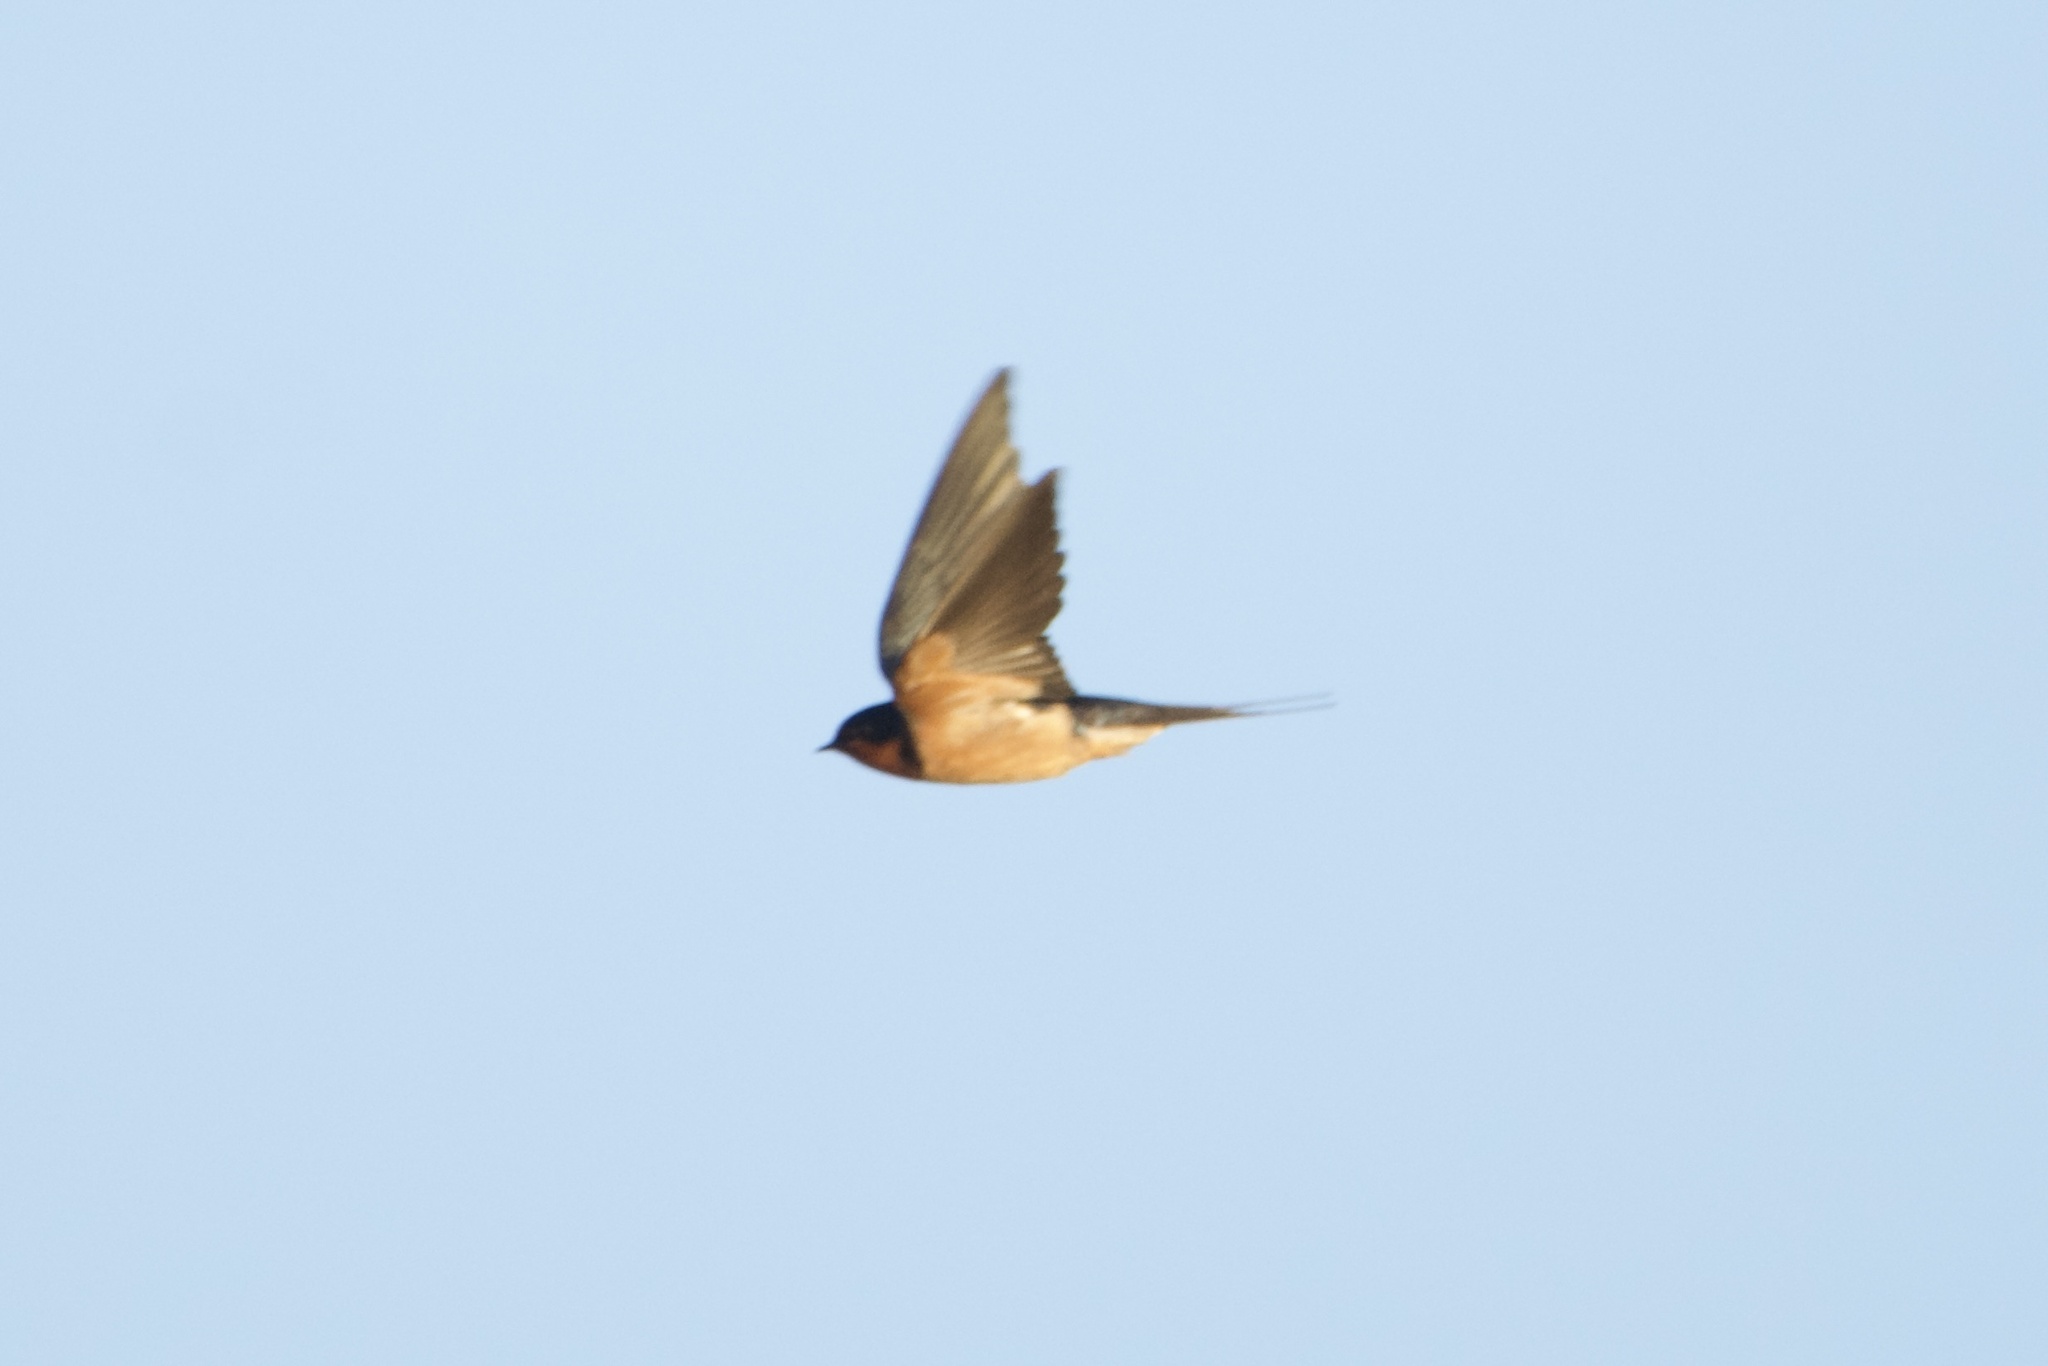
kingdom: Animalia
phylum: Chordata
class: Aves
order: Passeriformes
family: Hirundinidae
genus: Hirundo
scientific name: Hirundo rustica
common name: Barn swallow
